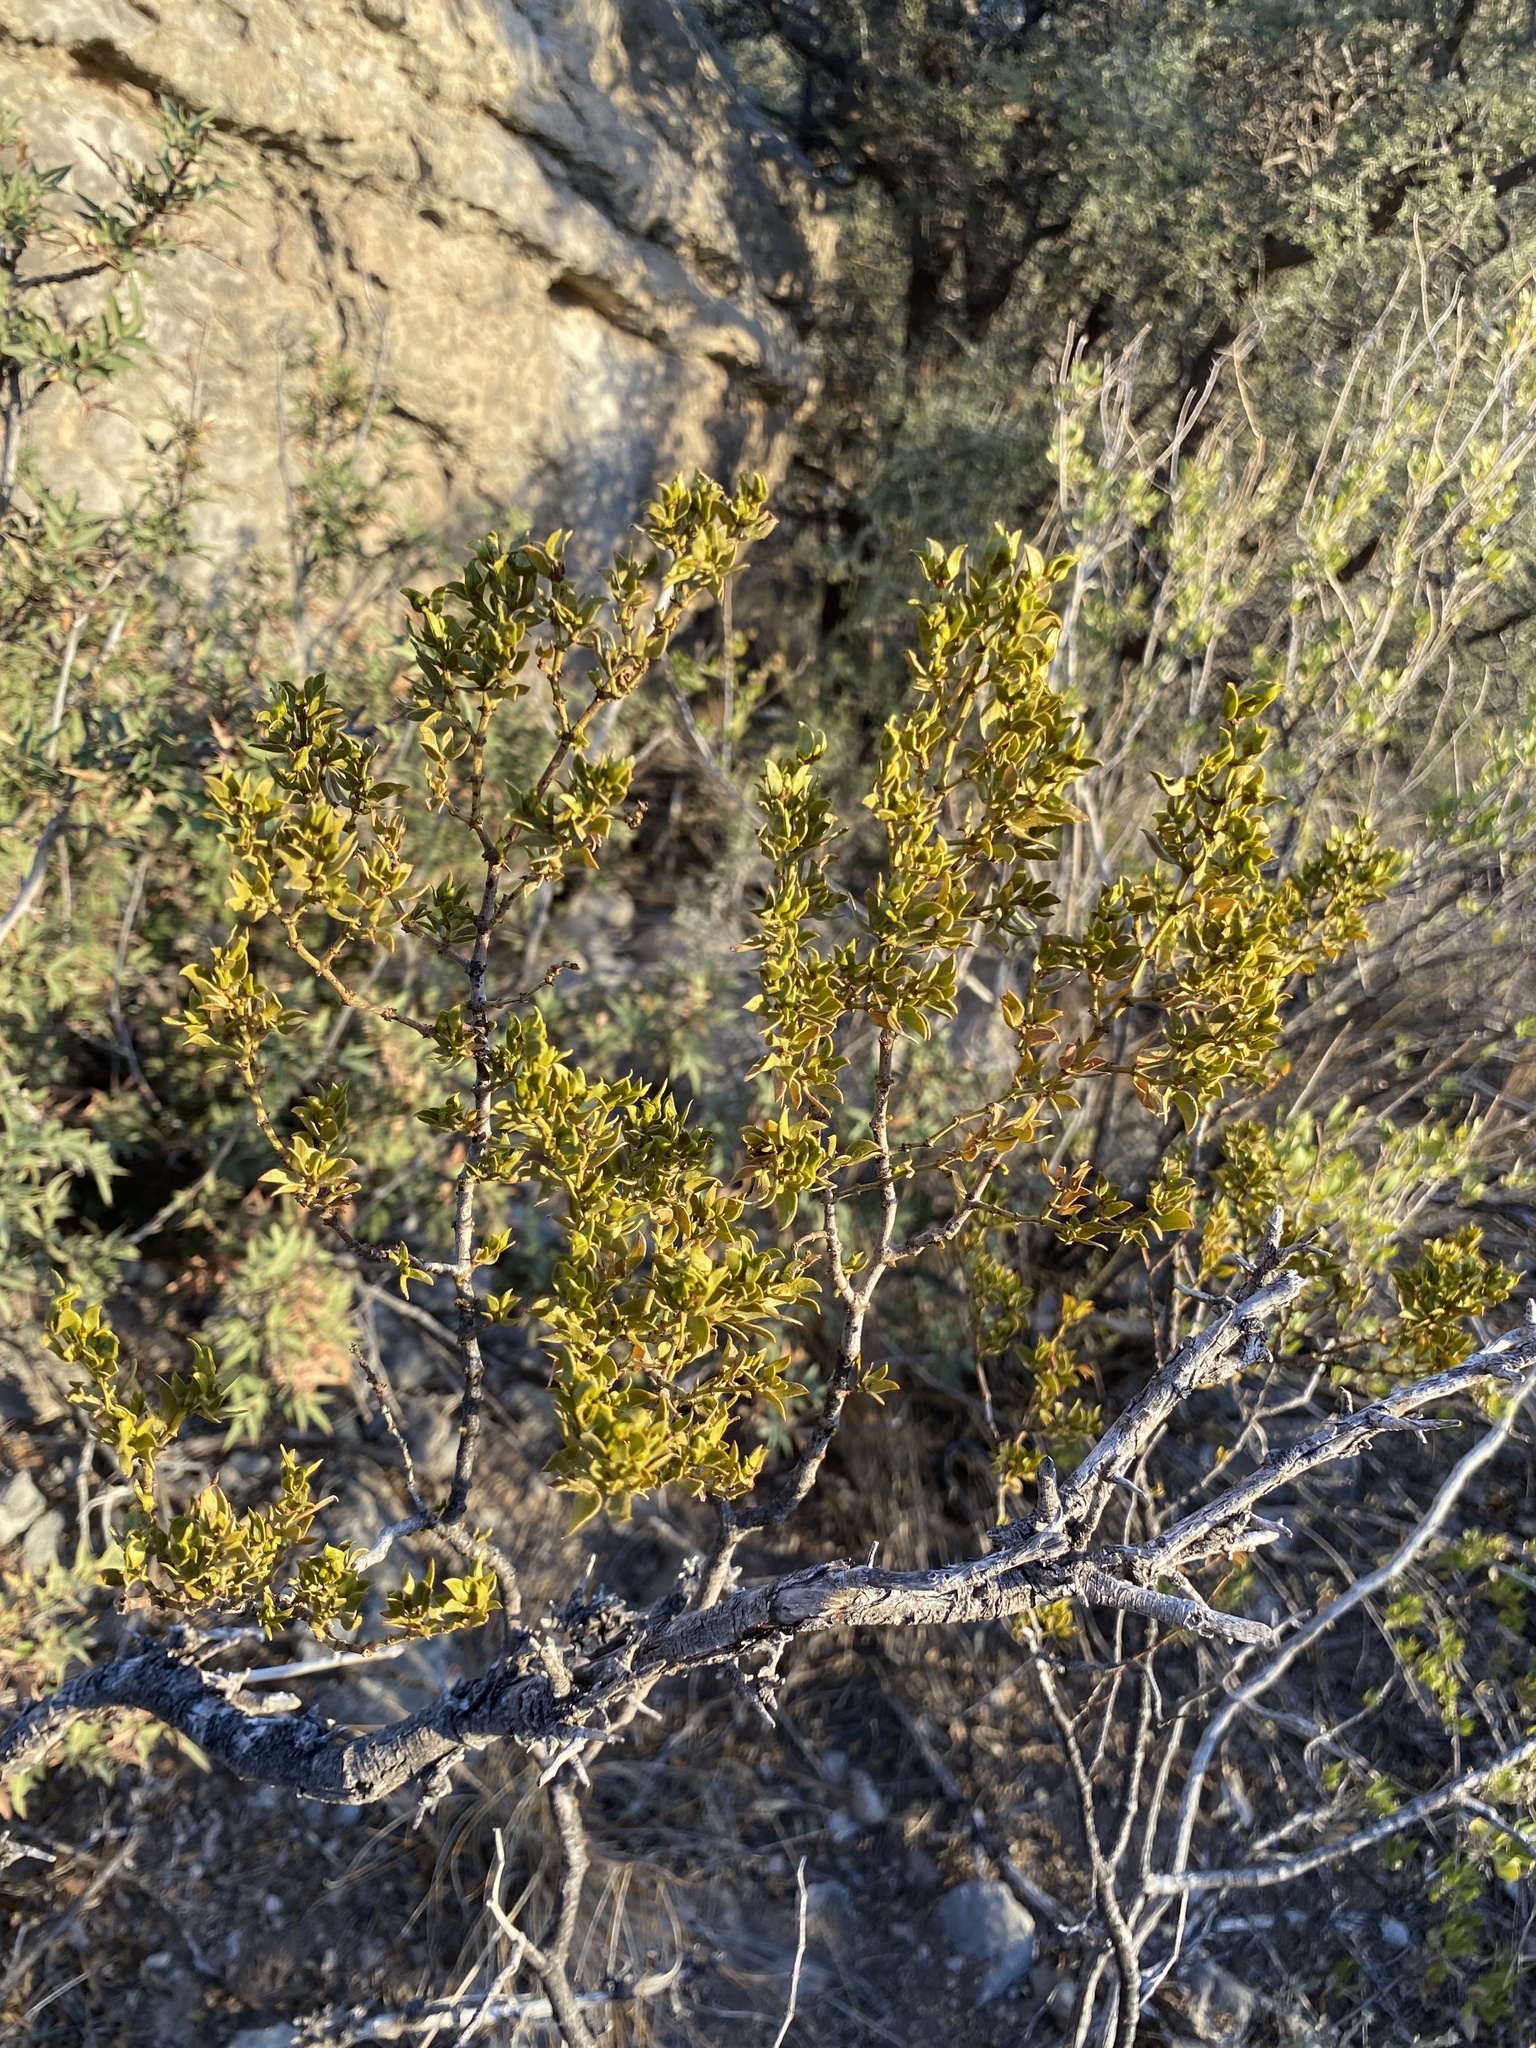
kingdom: Plantae
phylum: Tracheophyta
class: Magnoliopsida
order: Zygophyllales
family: Zygophyllaceae
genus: Larrea
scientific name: Larrea tridentata
